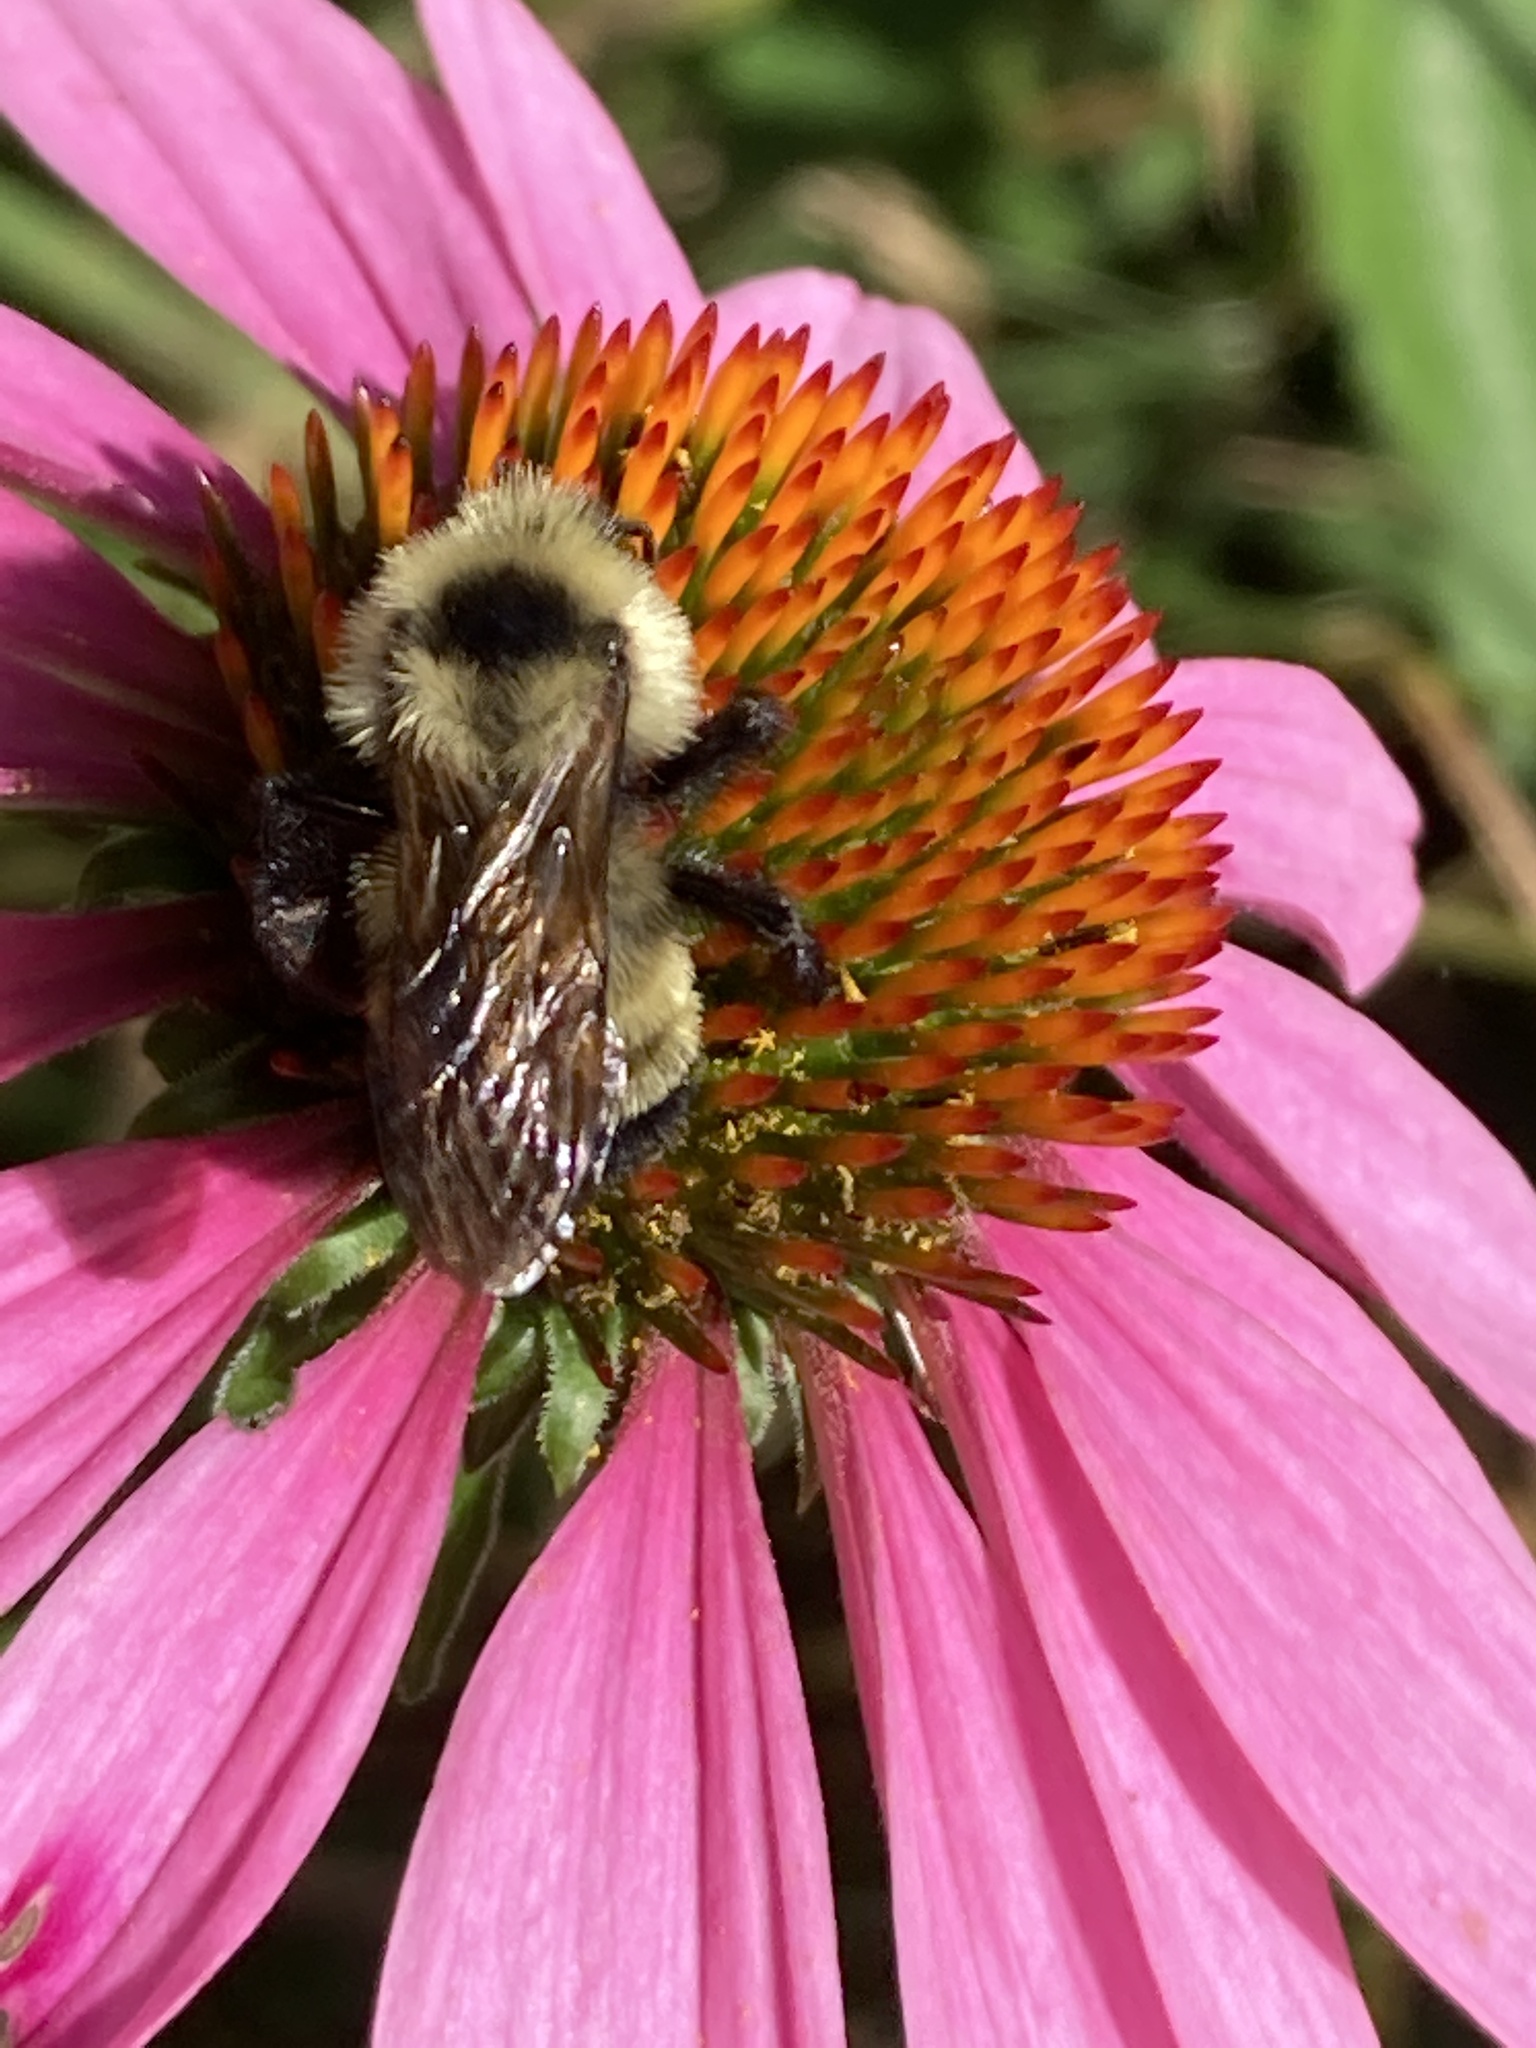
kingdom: Animalia
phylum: Arthropoda
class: Insecta
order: Hymenoptera
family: Apidae
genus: Bombus
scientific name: Bombus citrinus
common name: Lemon cuckoo bumble bee
